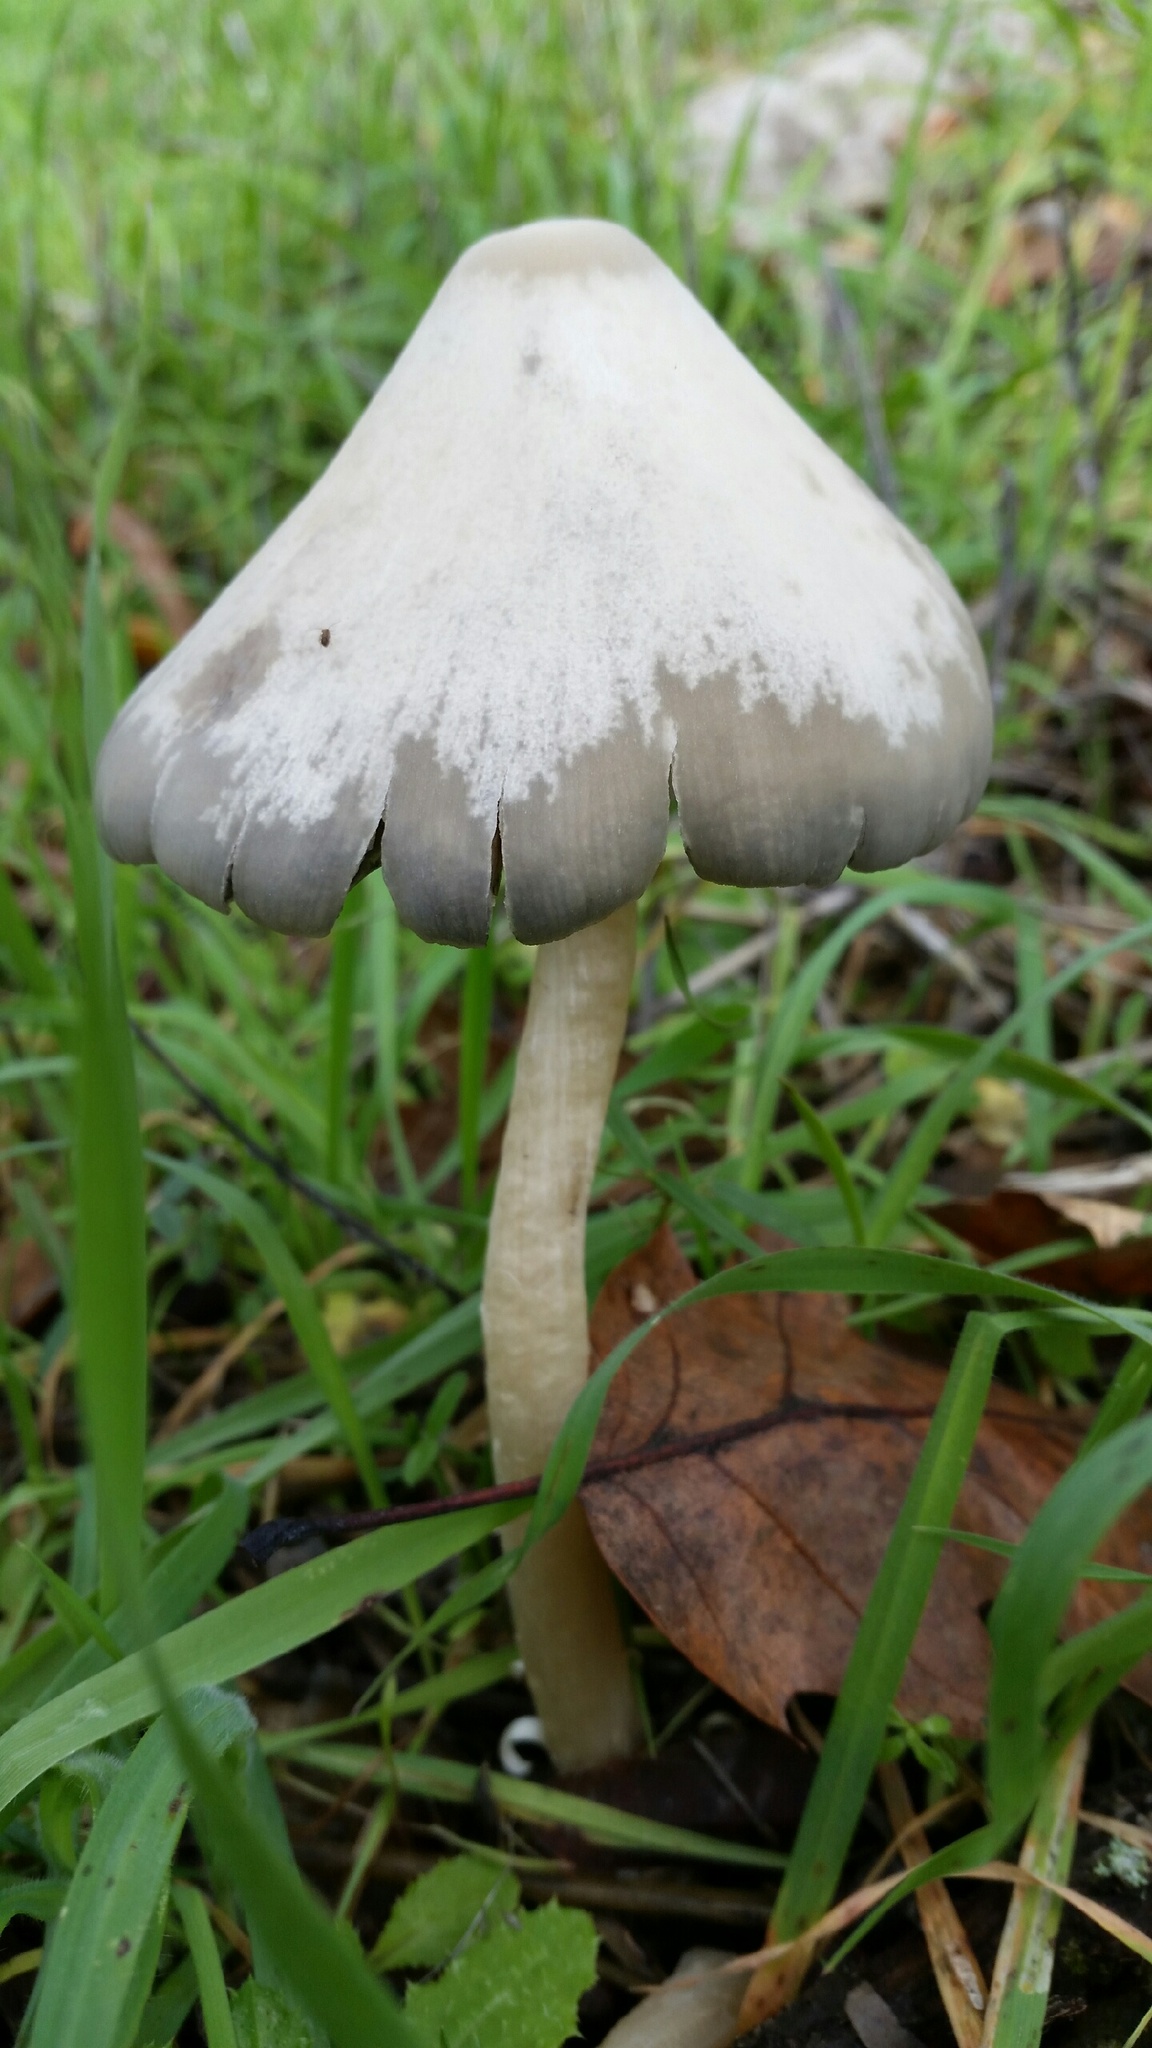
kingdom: Fungi
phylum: Basidiomycota
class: Agaricomycetes
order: Agaricales
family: Psathyrellaceae
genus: Psathyrella
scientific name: Psathyrella longipes
